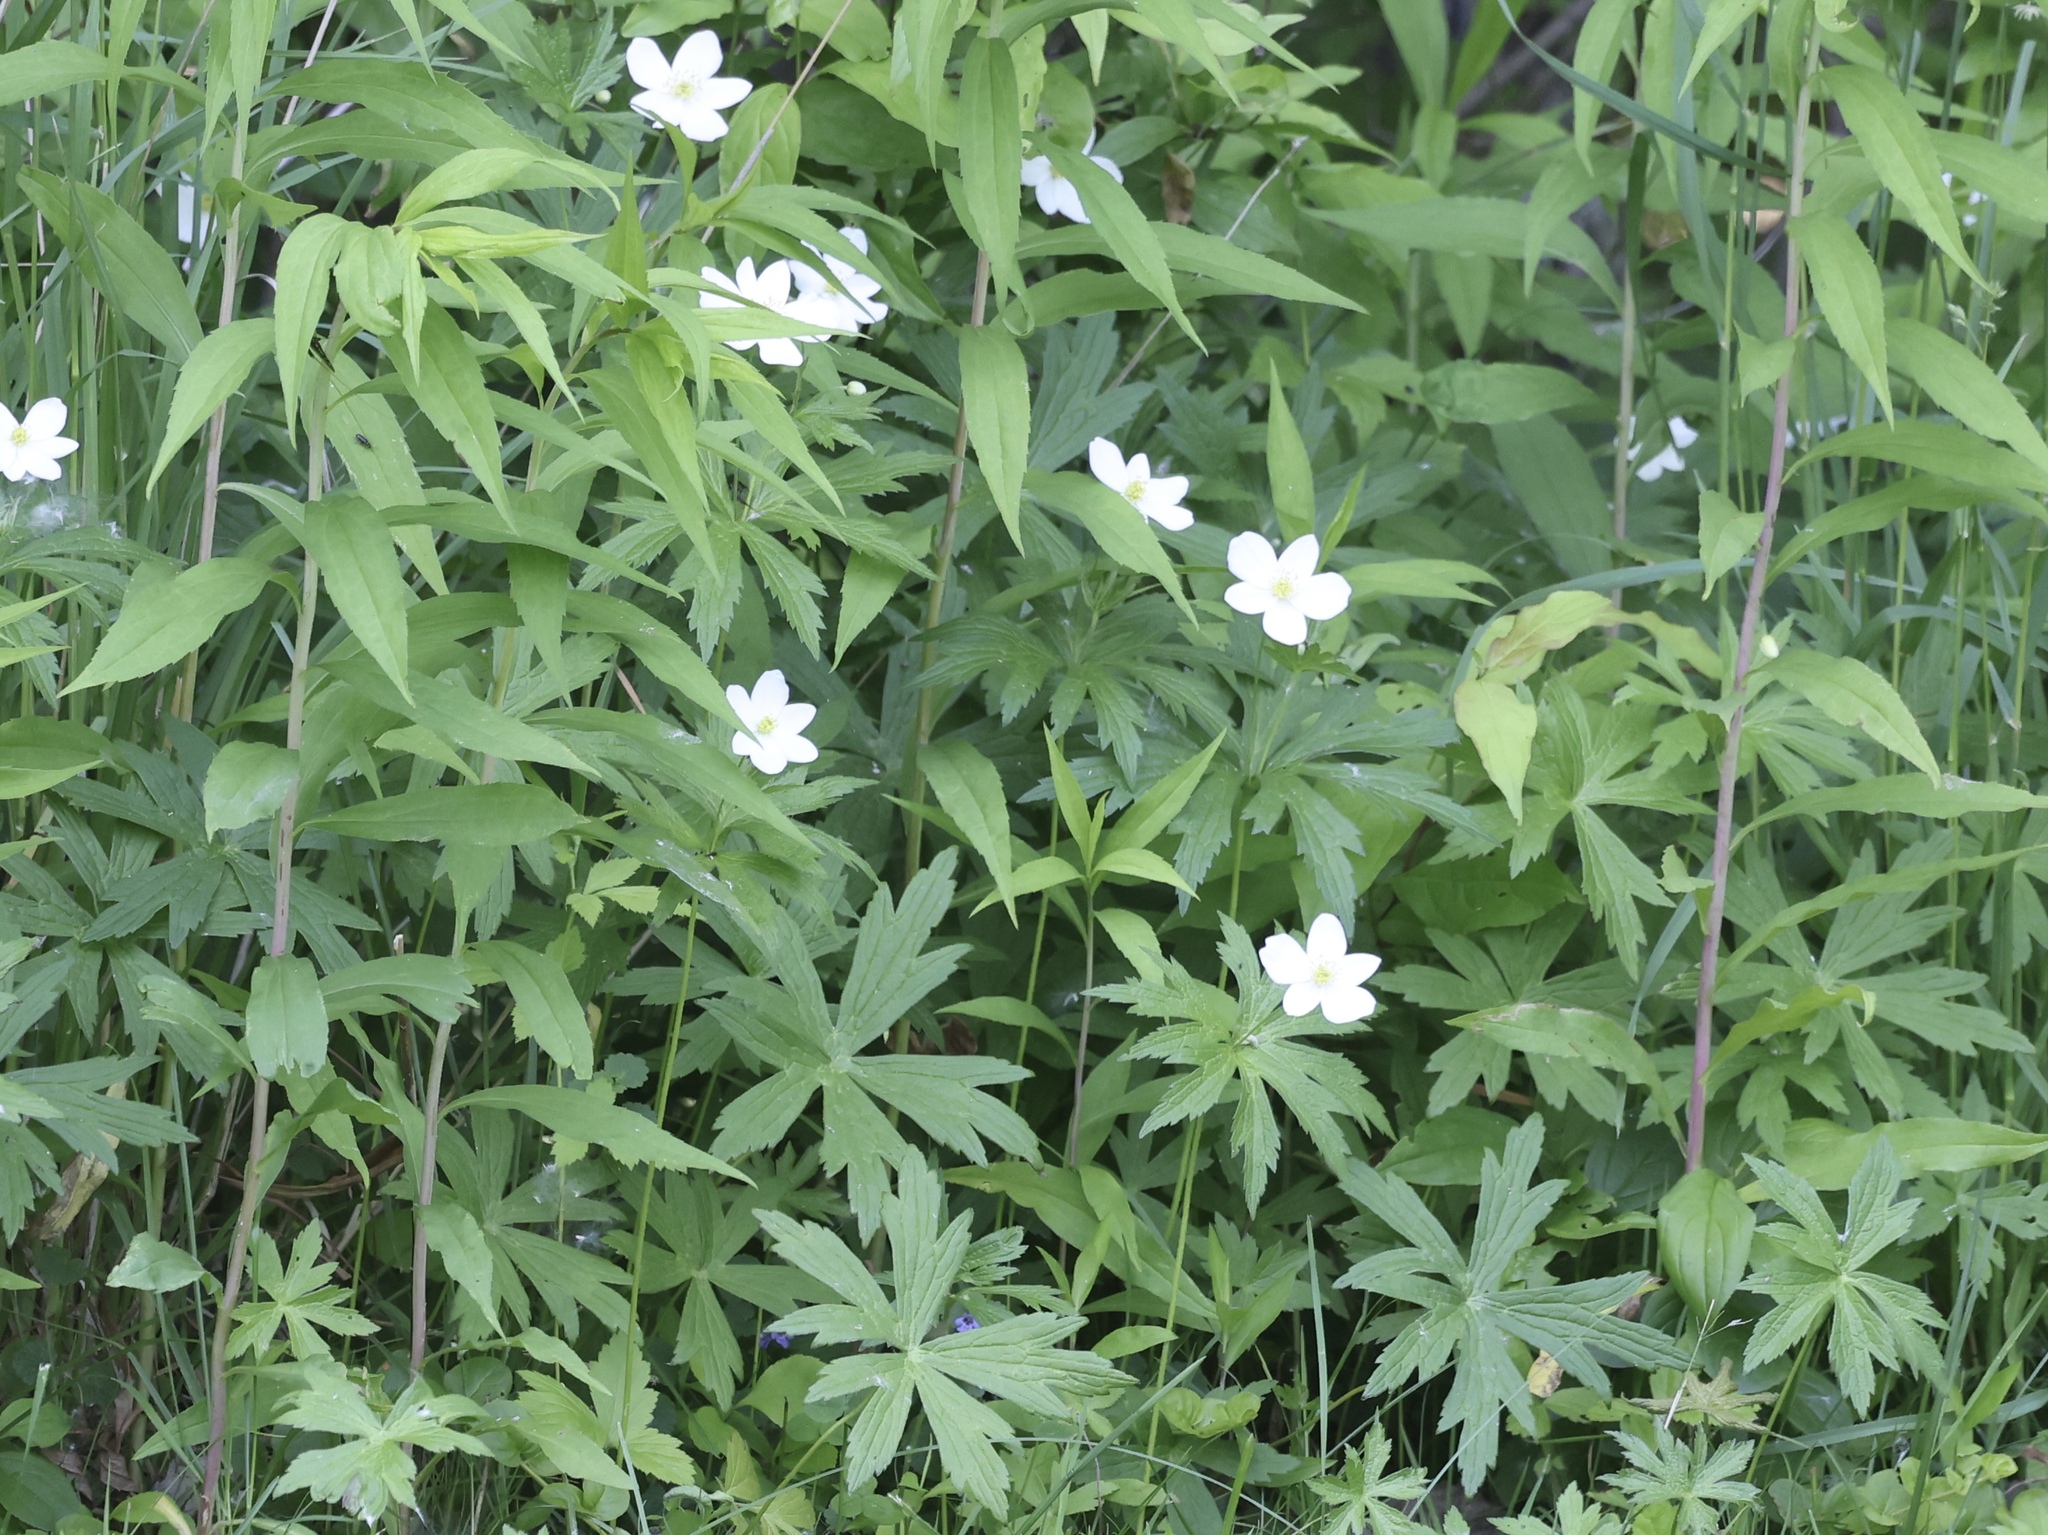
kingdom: Plantae
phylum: Tracheophyta
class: Magnoliopsida
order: Ranunculales
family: Ranunculaceae
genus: Anemonastrum
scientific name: Anemonastrum canadense
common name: Canada anemone
